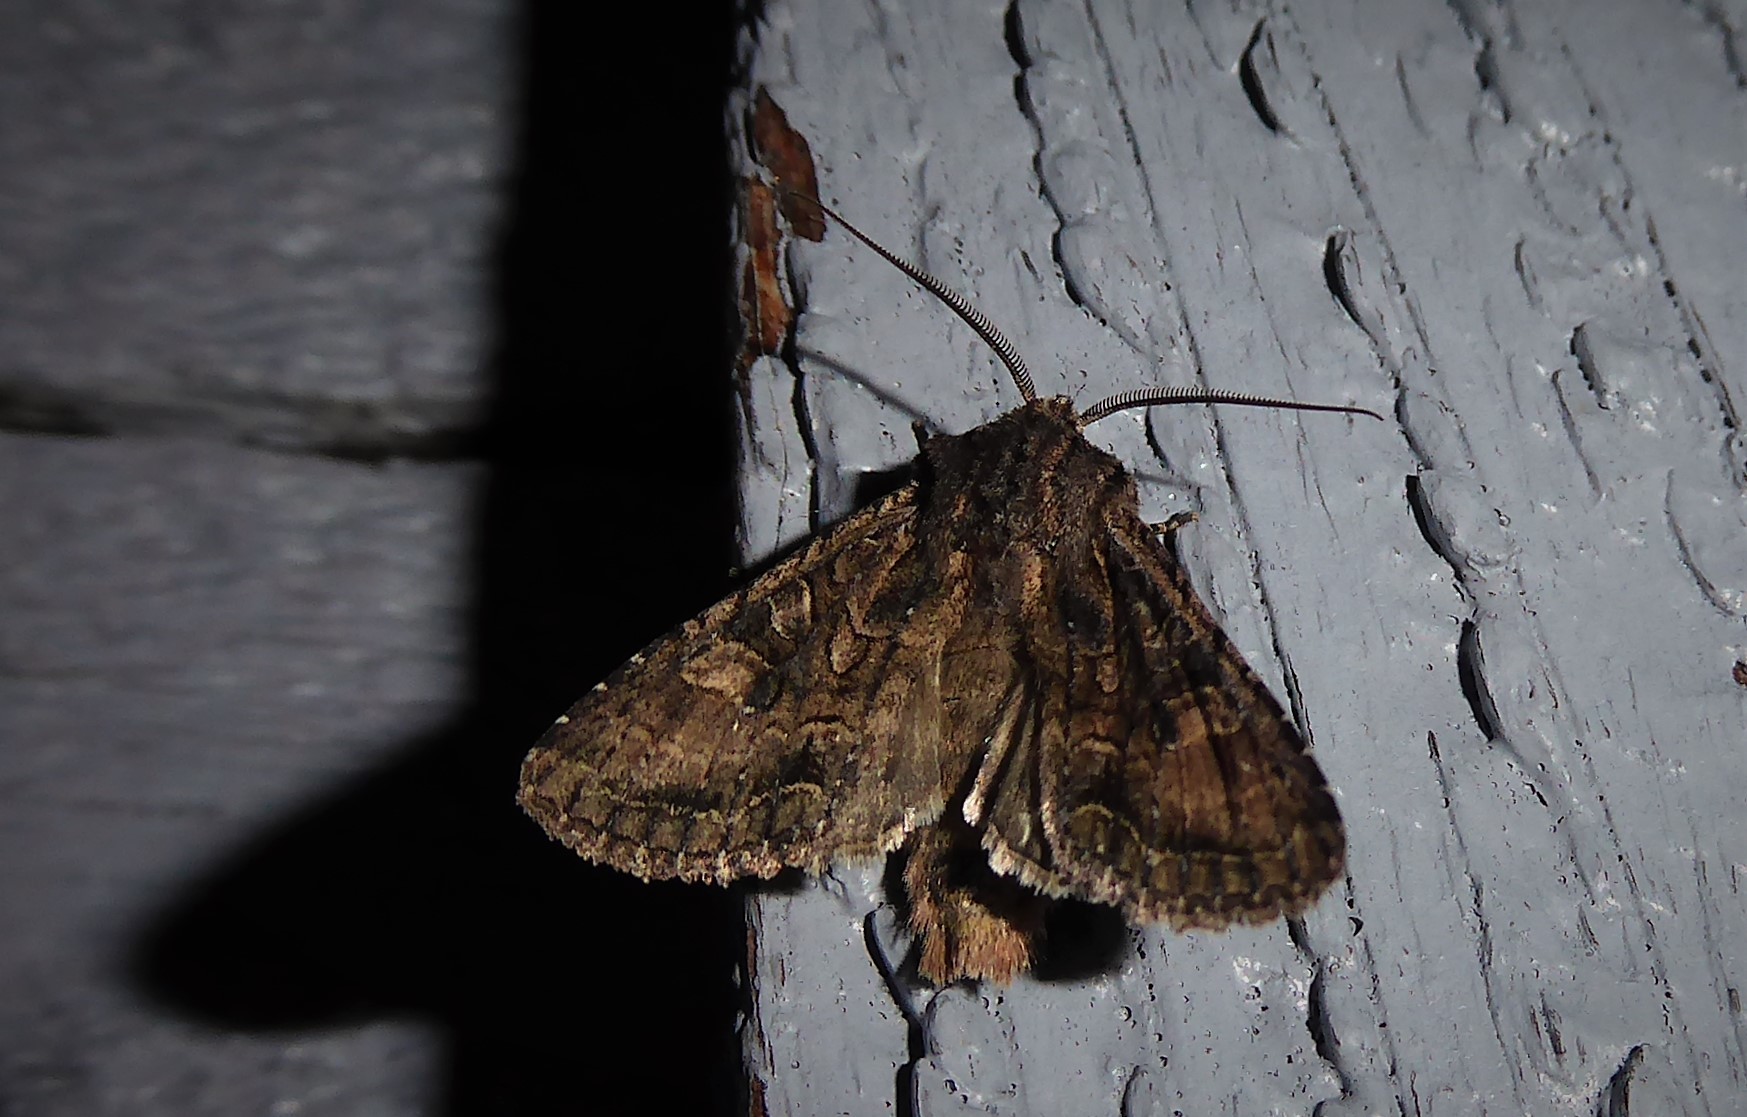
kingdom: Animalia
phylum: Arthropoda
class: Insecta
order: Lepidoptera
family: Noctuidae
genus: Ichneutica
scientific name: Ichneutica mutans
